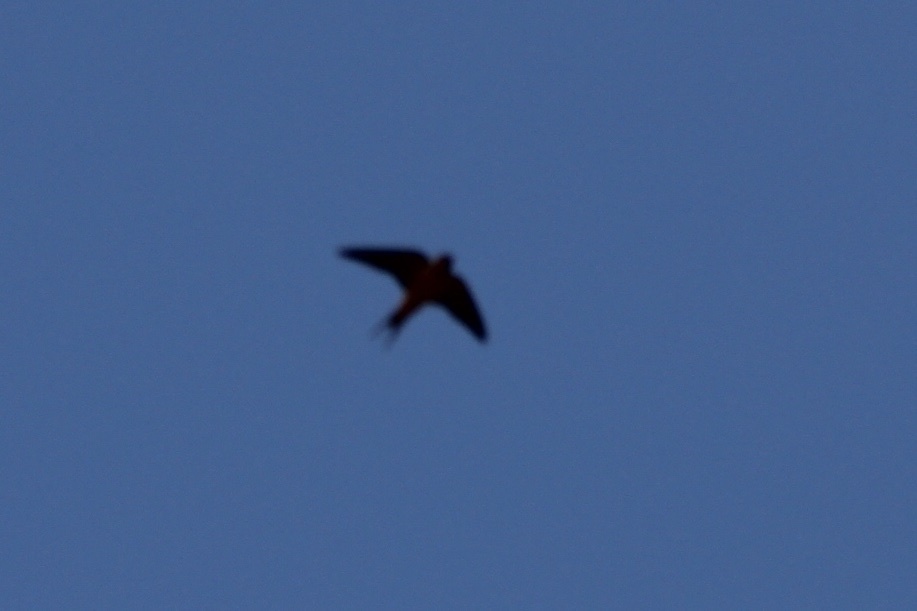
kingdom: Animalia
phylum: Chordata
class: Aves
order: Passeriformes
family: Hirundinidae
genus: Hirundo
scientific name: Hirundo rustica
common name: Barn swallow
